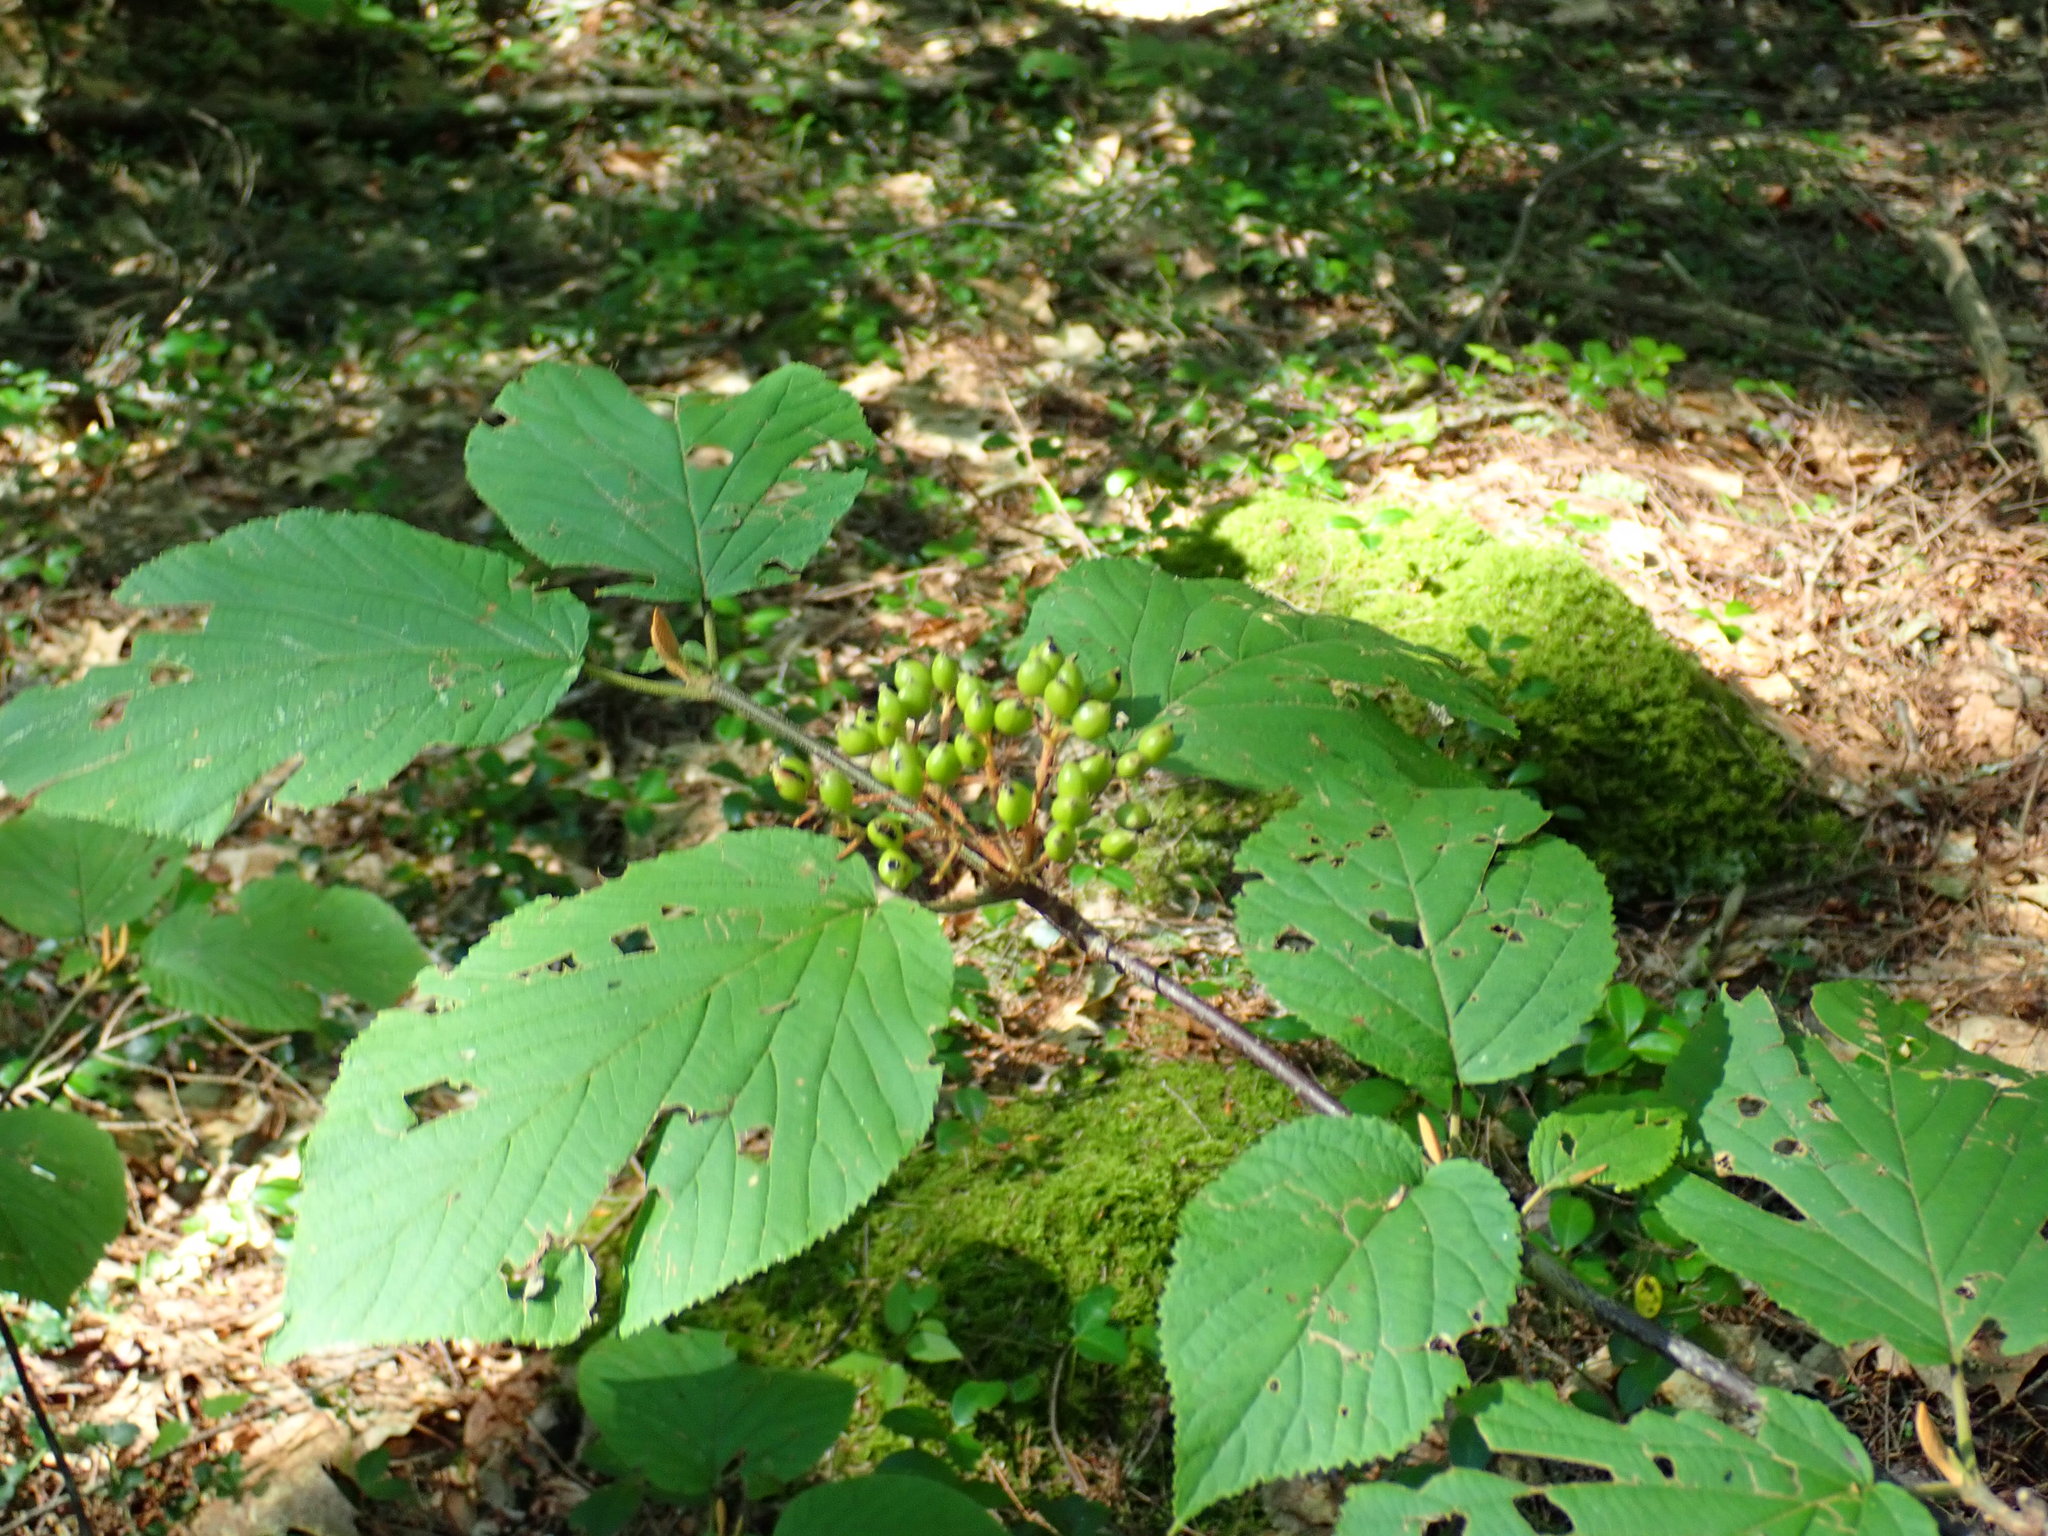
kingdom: Plantae
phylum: Tracheophyta
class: Magnoliopsida
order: Dipsacales
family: Viburnaceae
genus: Viburnum
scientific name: Viburnum lantanoides
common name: Hobblebush
